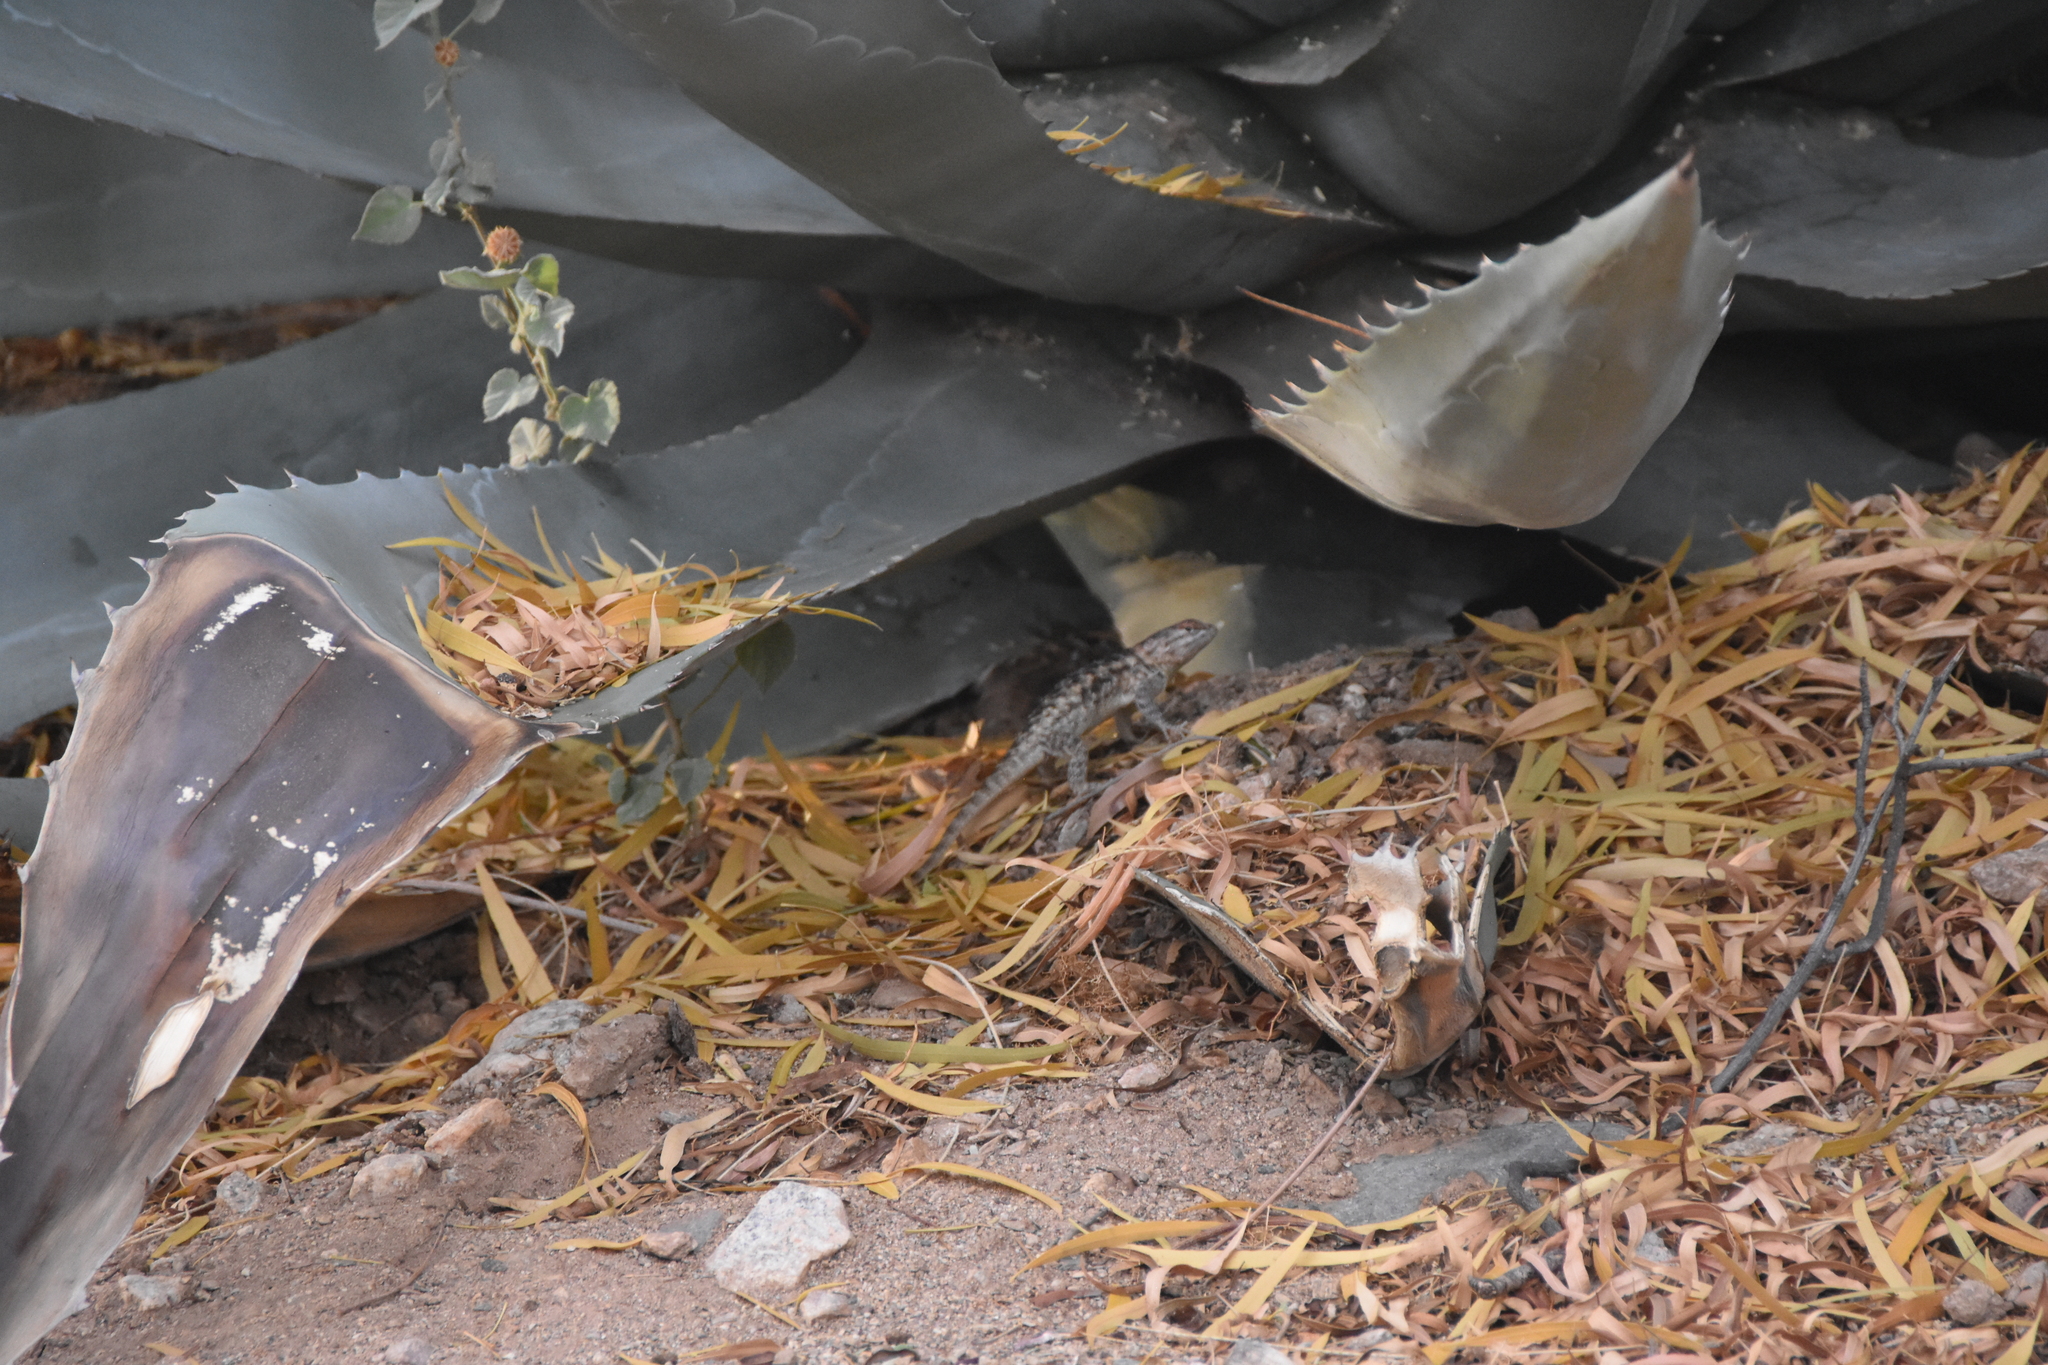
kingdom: Animalia
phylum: Chordata
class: Squamata
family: Phrynosomatidae
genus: Sceloporus
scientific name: Sceloporus magister
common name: Desert spiny lizard
